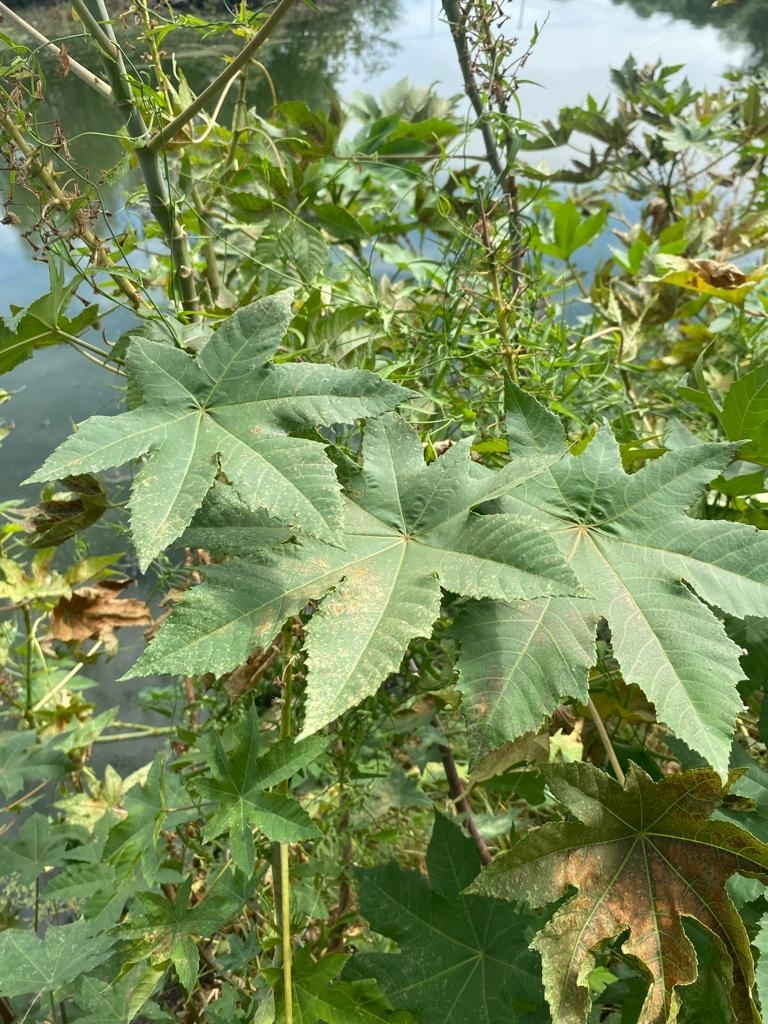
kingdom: Plantae
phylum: Tracheophyta
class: Magnoliopsida
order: Malpighiales
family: Euphorbiaceae
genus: Ricinus
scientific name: Ricinus communis
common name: Castor-oil-plant
